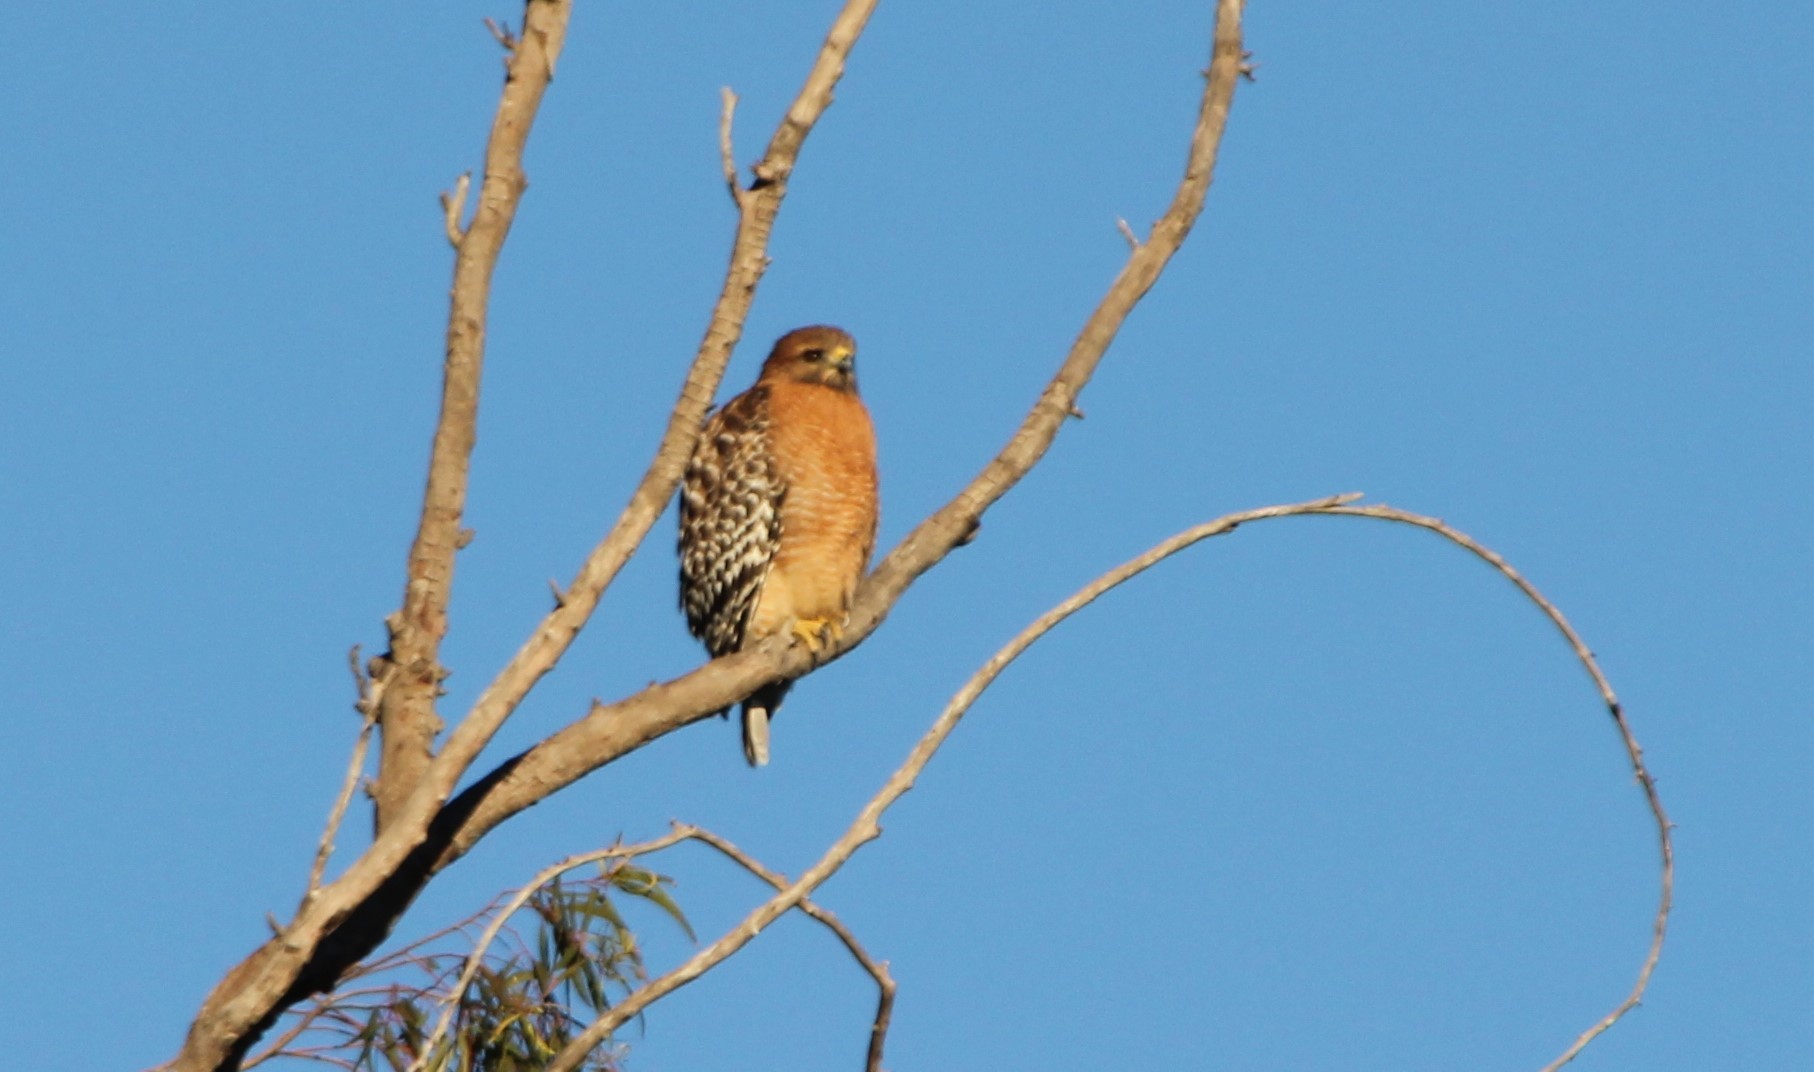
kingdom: Animalia
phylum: Chordata
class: Aves
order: Accipitriformes
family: Accipitridae
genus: Buteo
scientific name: Buteo lineatus
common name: Red-shouldered hawk
